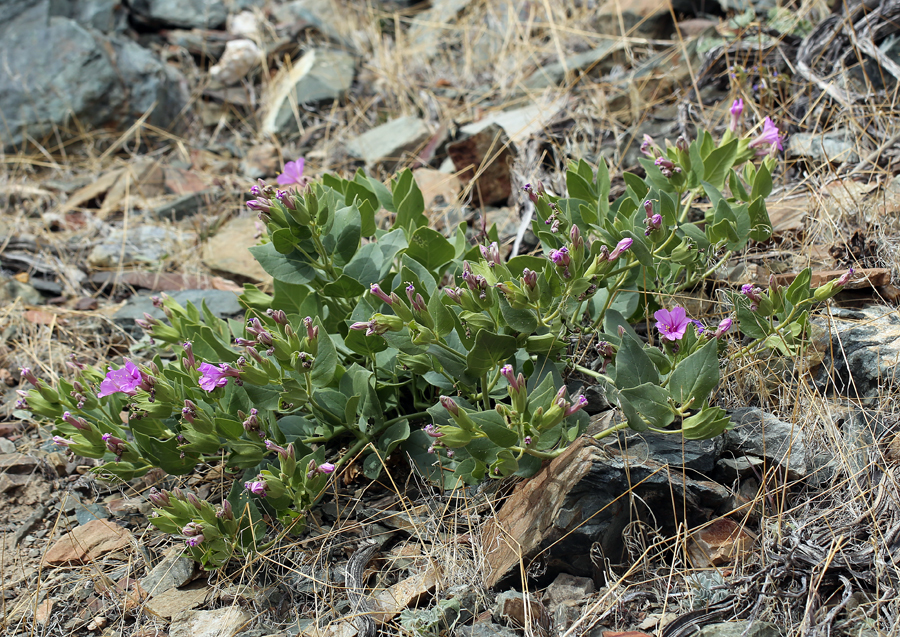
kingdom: Plantae
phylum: Tracheophyta
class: Magnoliopsida
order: Caryophyllales
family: Nyctaginaceae
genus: Mirabilis
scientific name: Mirabilis multiflora
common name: Froebel's four-o'clock
